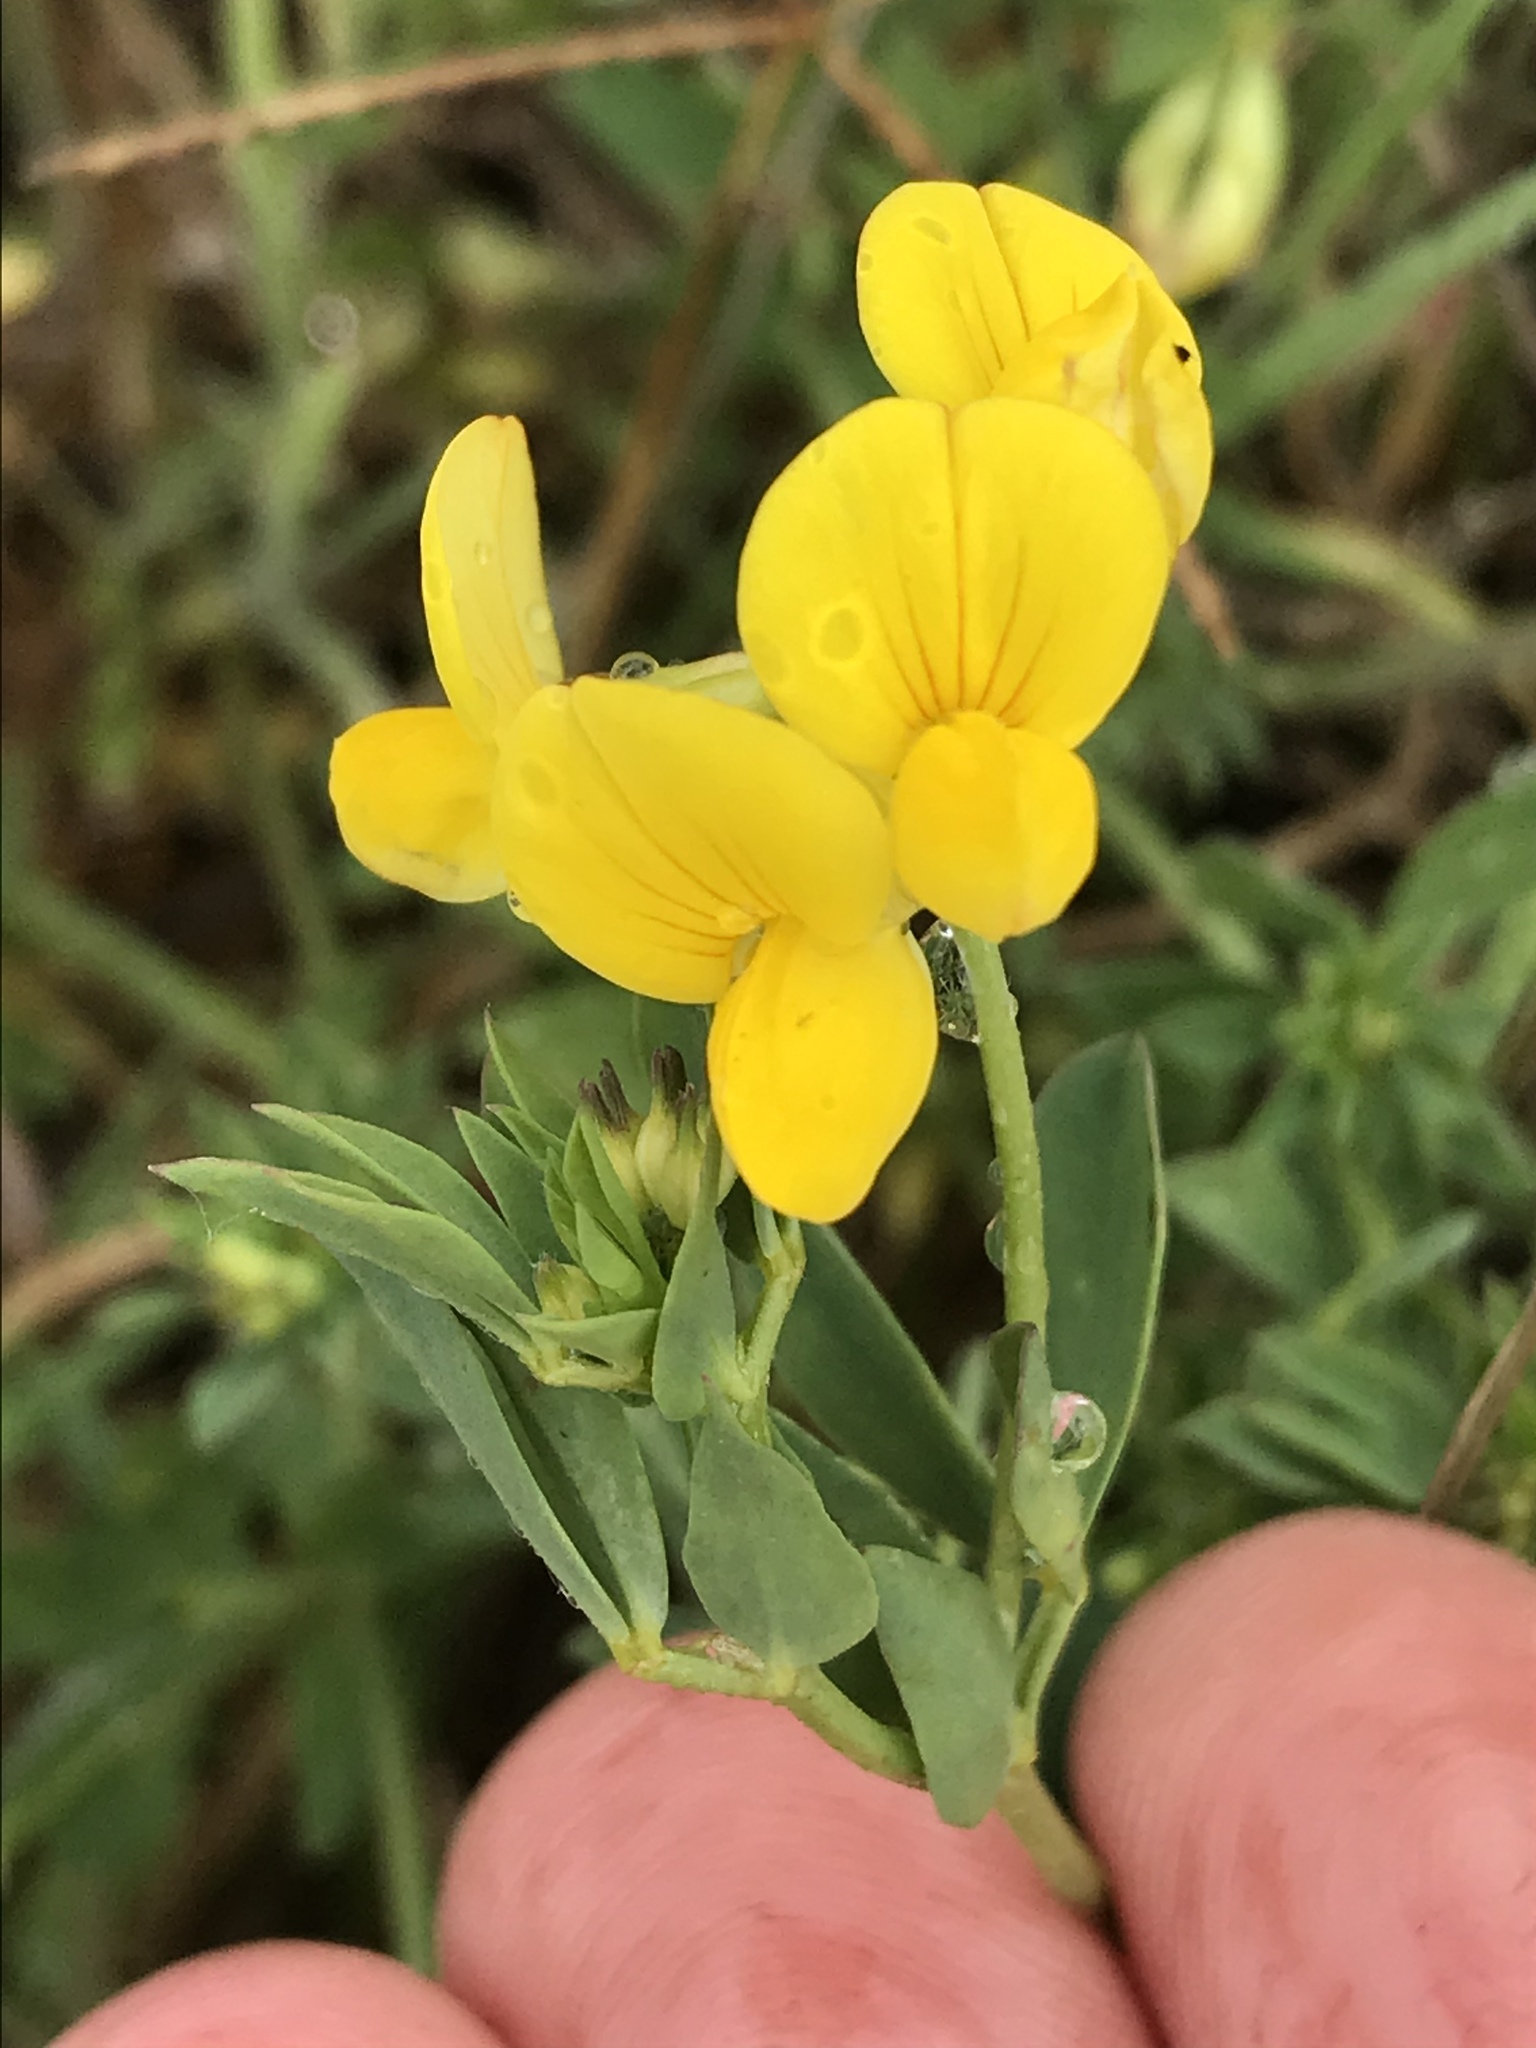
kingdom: Plantae
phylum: Tracheophyta
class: Magnoliopsida
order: Fabales
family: Fabaceae
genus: Lotus
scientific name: Lotus corniculatus
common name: Common bird's-foot-trefoil
